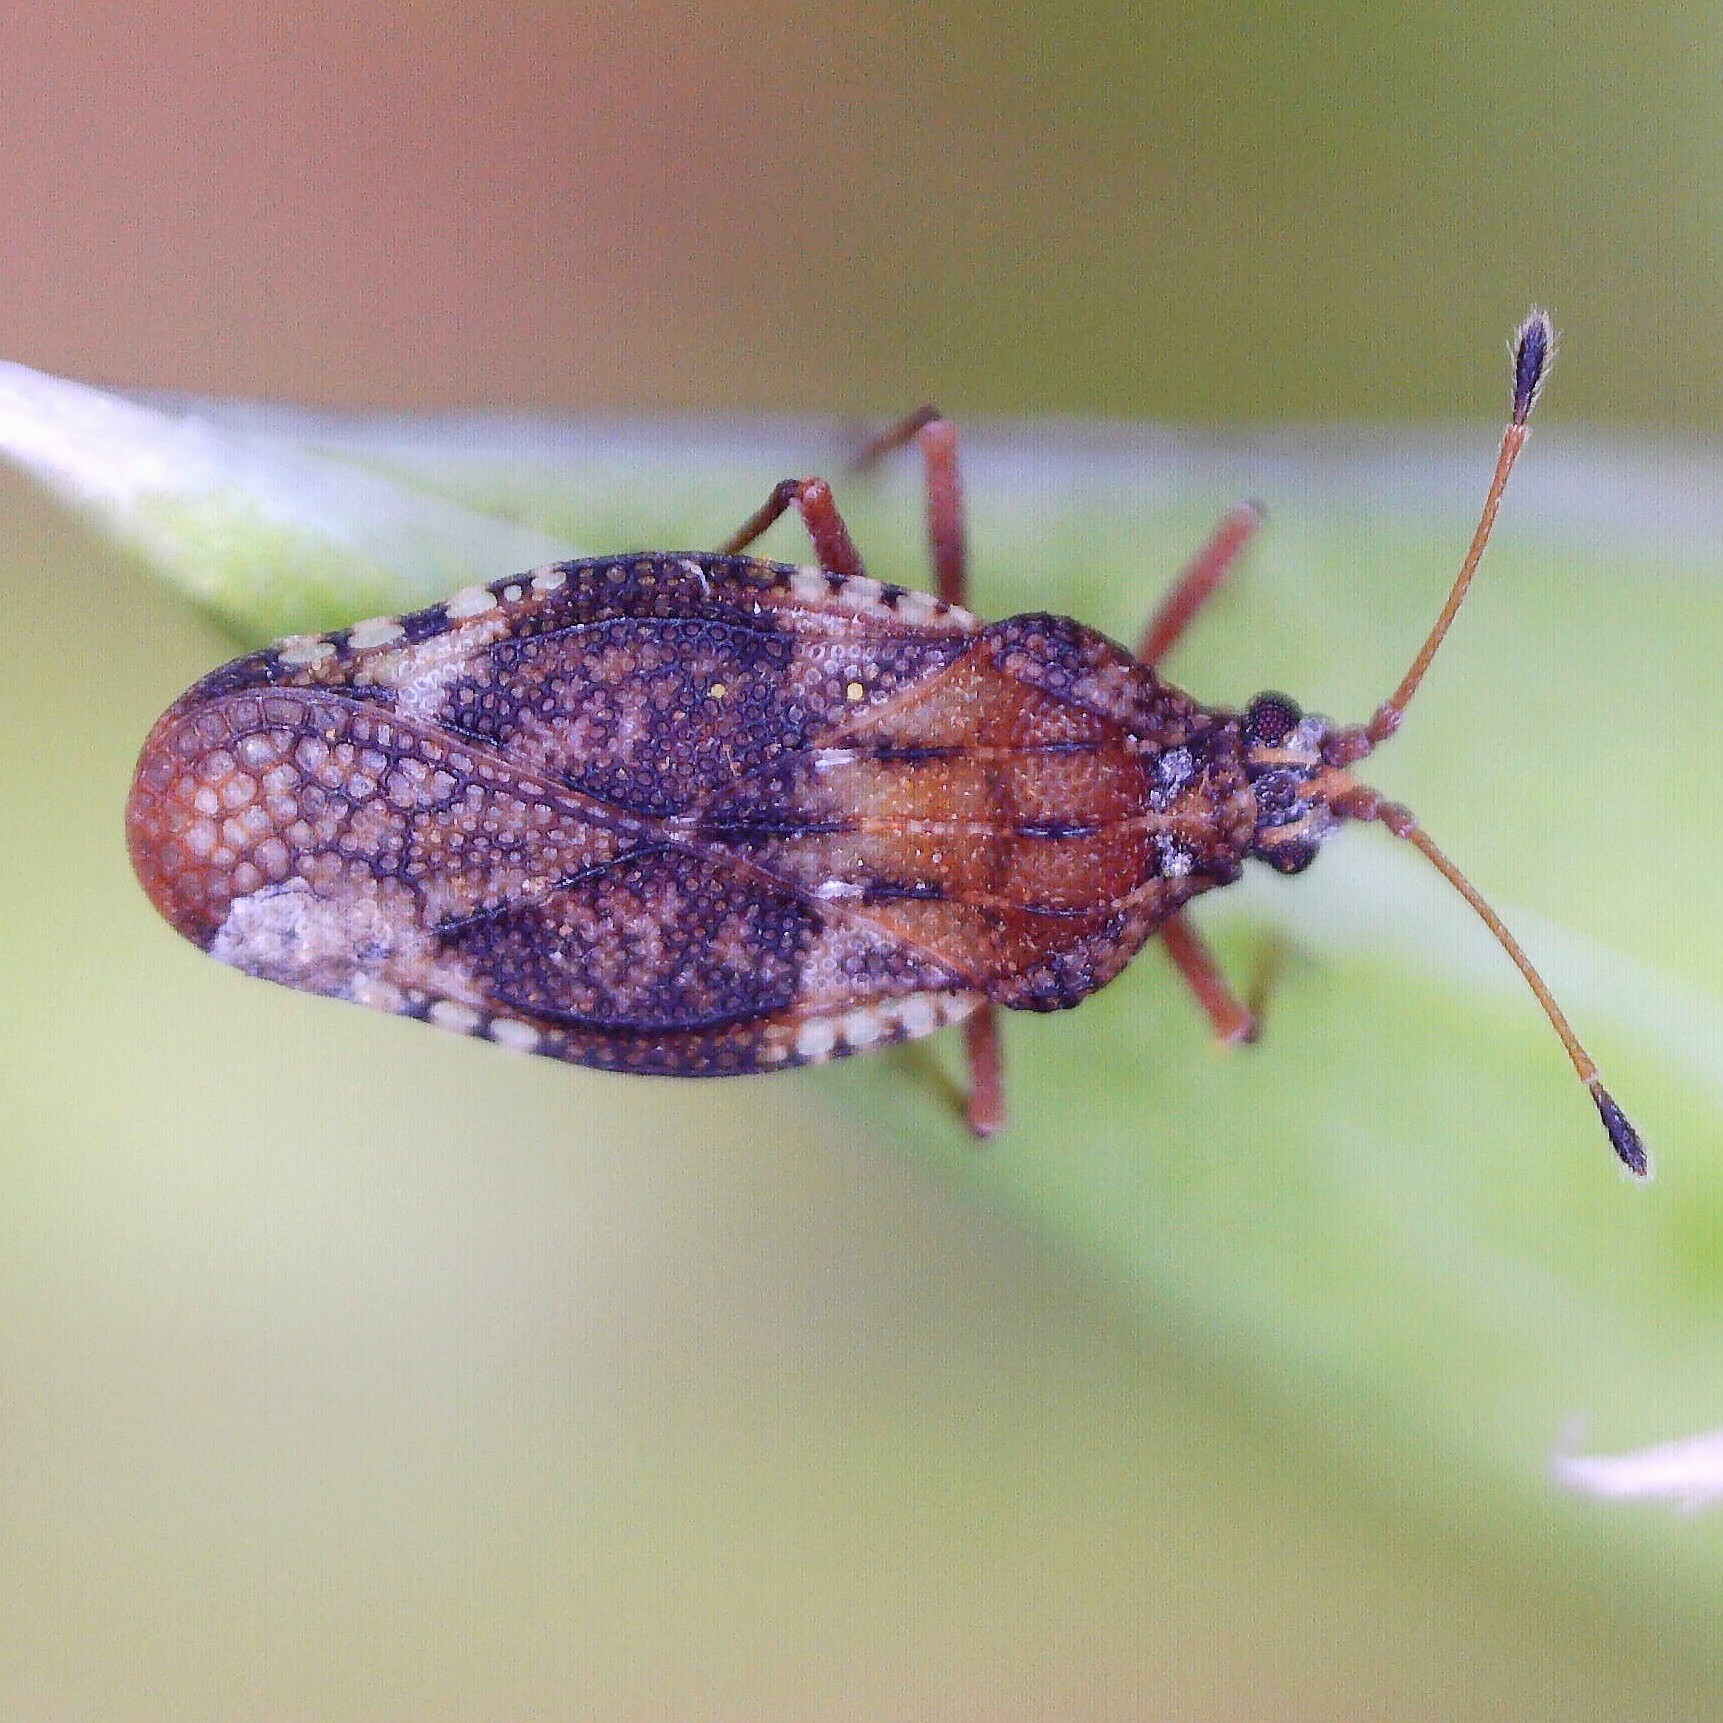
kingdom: Animalia
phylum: Arthropoda
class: Insecta
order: Hemiptera
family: Tingidae
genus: Physatocheila
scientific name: Physatocheila dumetorum
